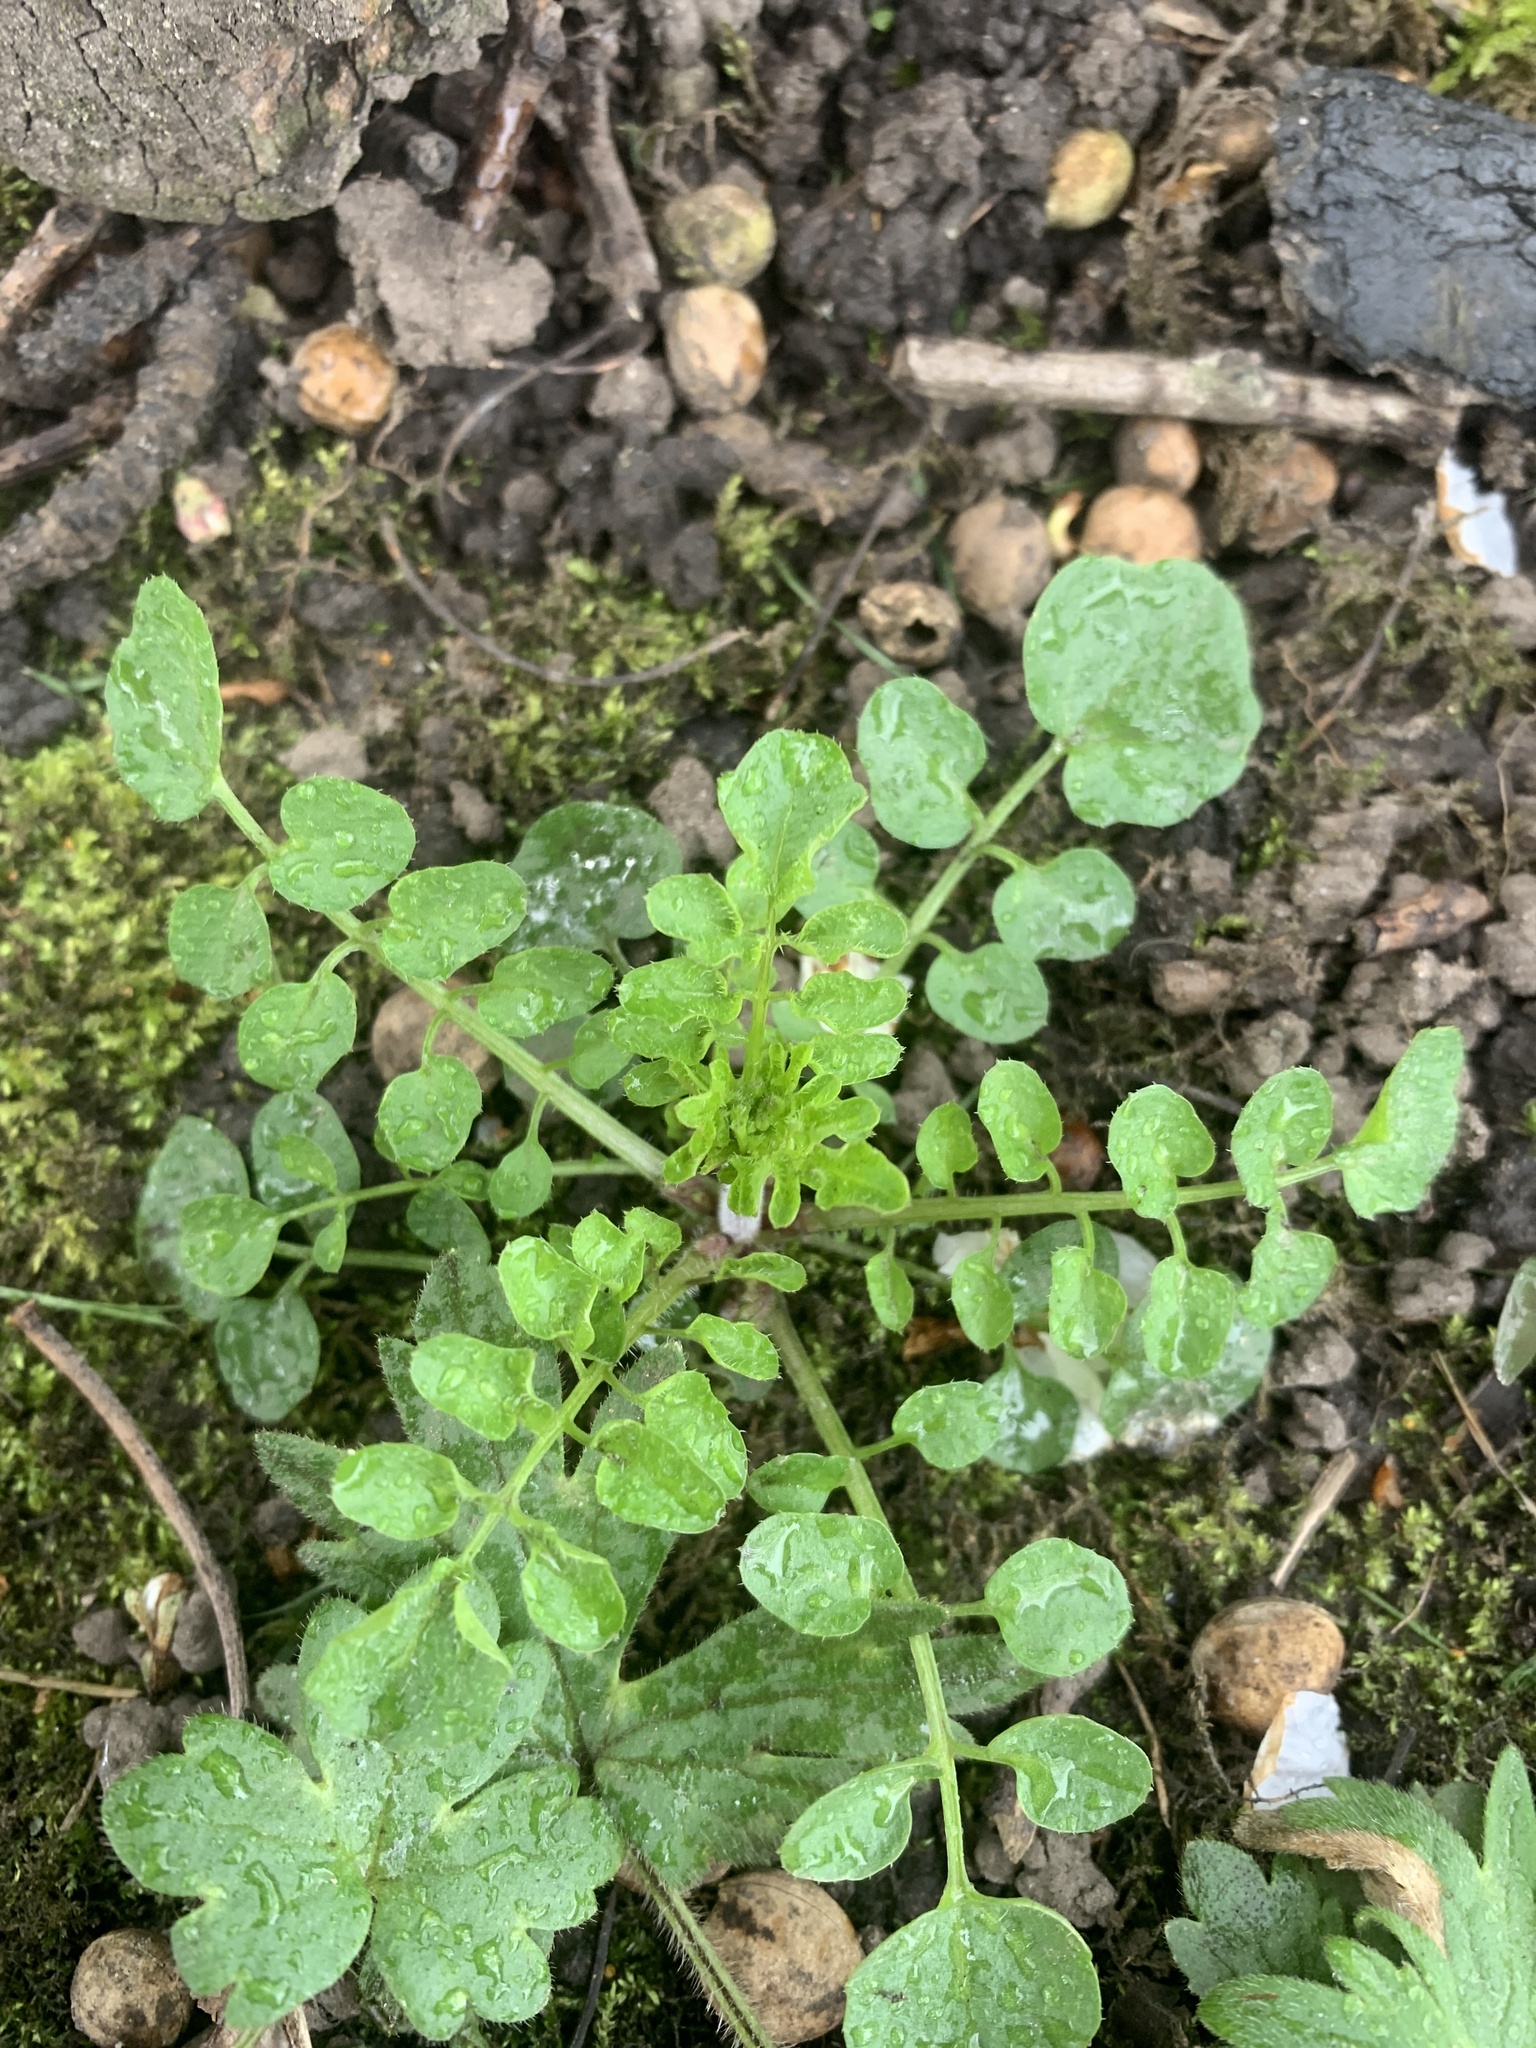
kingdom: Plantae
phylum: Tracheophyta
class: Magnoliopsida
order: Brassicales
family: Brassicaceae
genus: Cardamine
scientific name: Cardamine flexuosa
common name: Woodland bittercress
